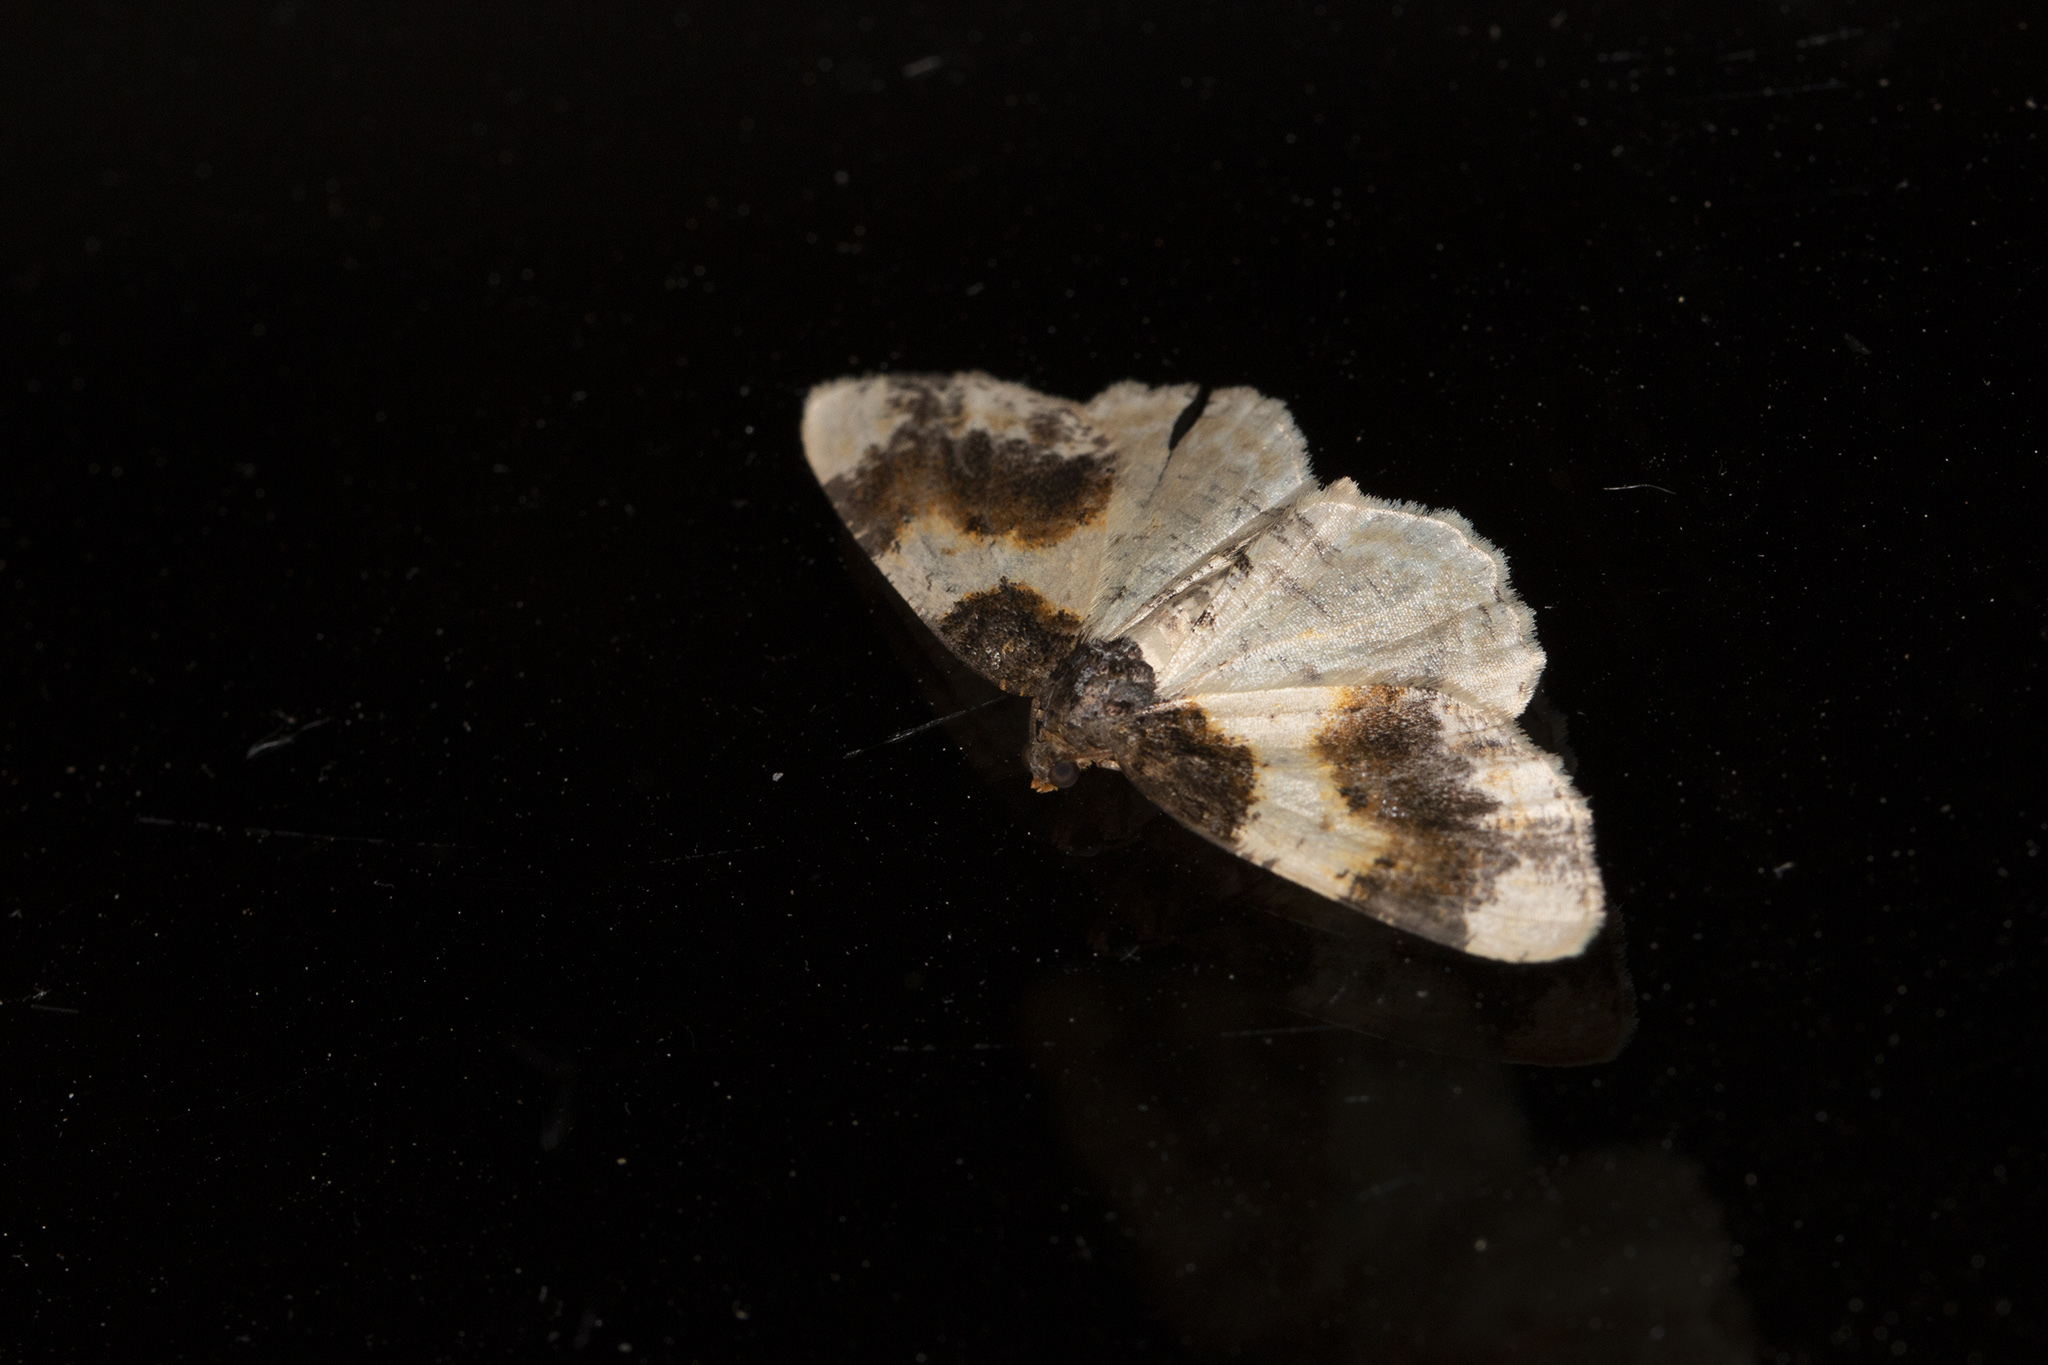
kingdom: Animalia
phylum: Arthropoda
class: Insecta
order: Lepidoptera
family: Geometridae
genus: Ligdia
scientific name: Ligdia adustata
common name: Scorched carpet
